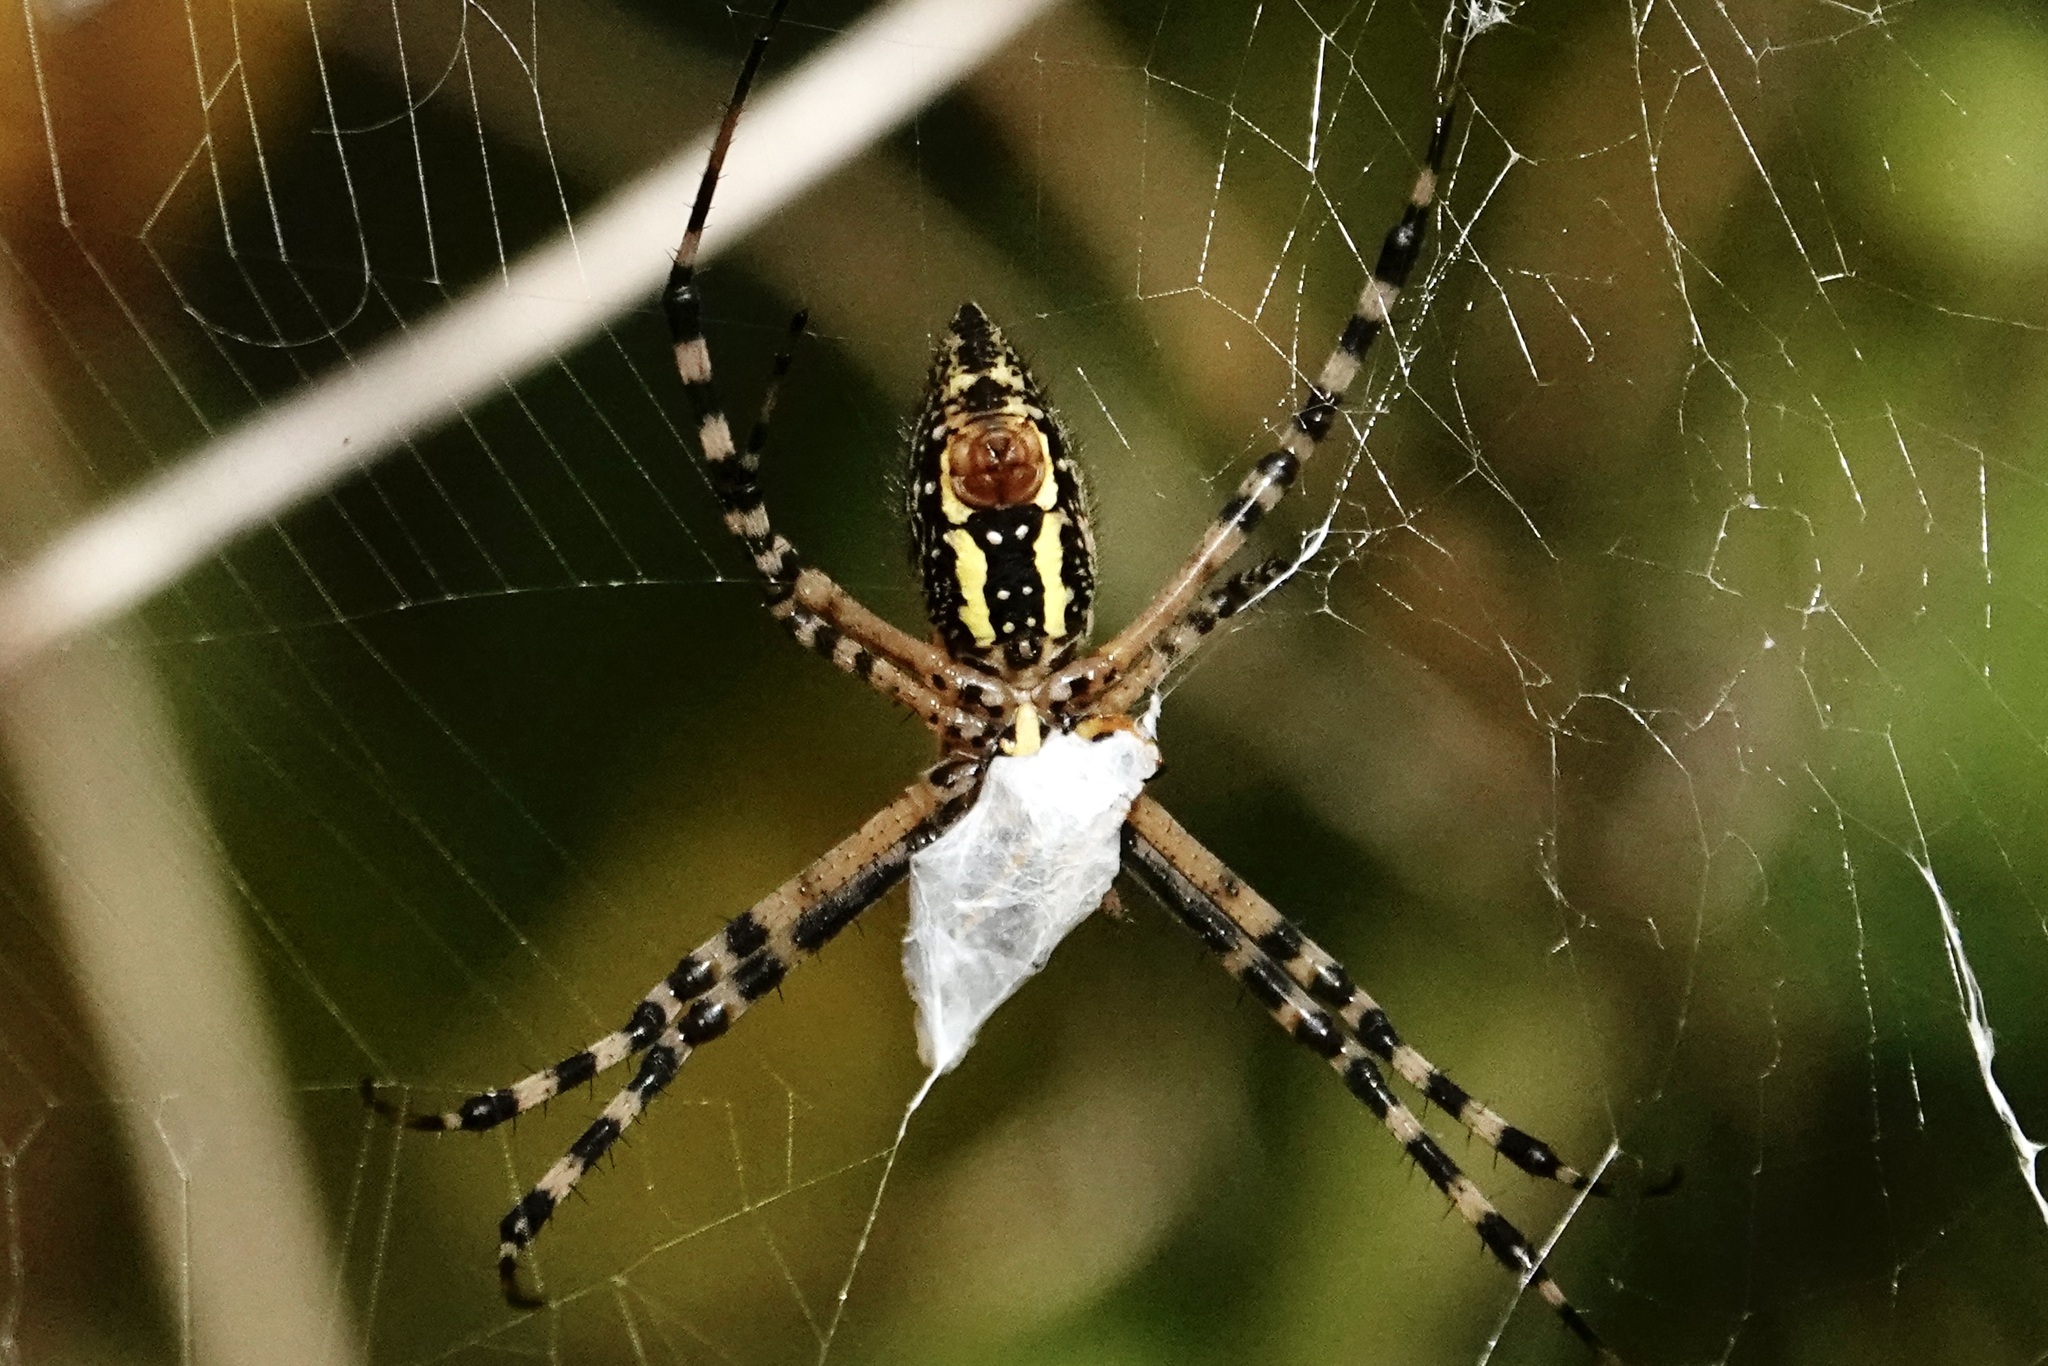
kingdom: Animalia
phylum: Arthropoda
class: Arachnida
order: Araneae
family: Araneidae
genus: Argiope
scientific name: Argiope trifasciata
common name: Banded garden spider
